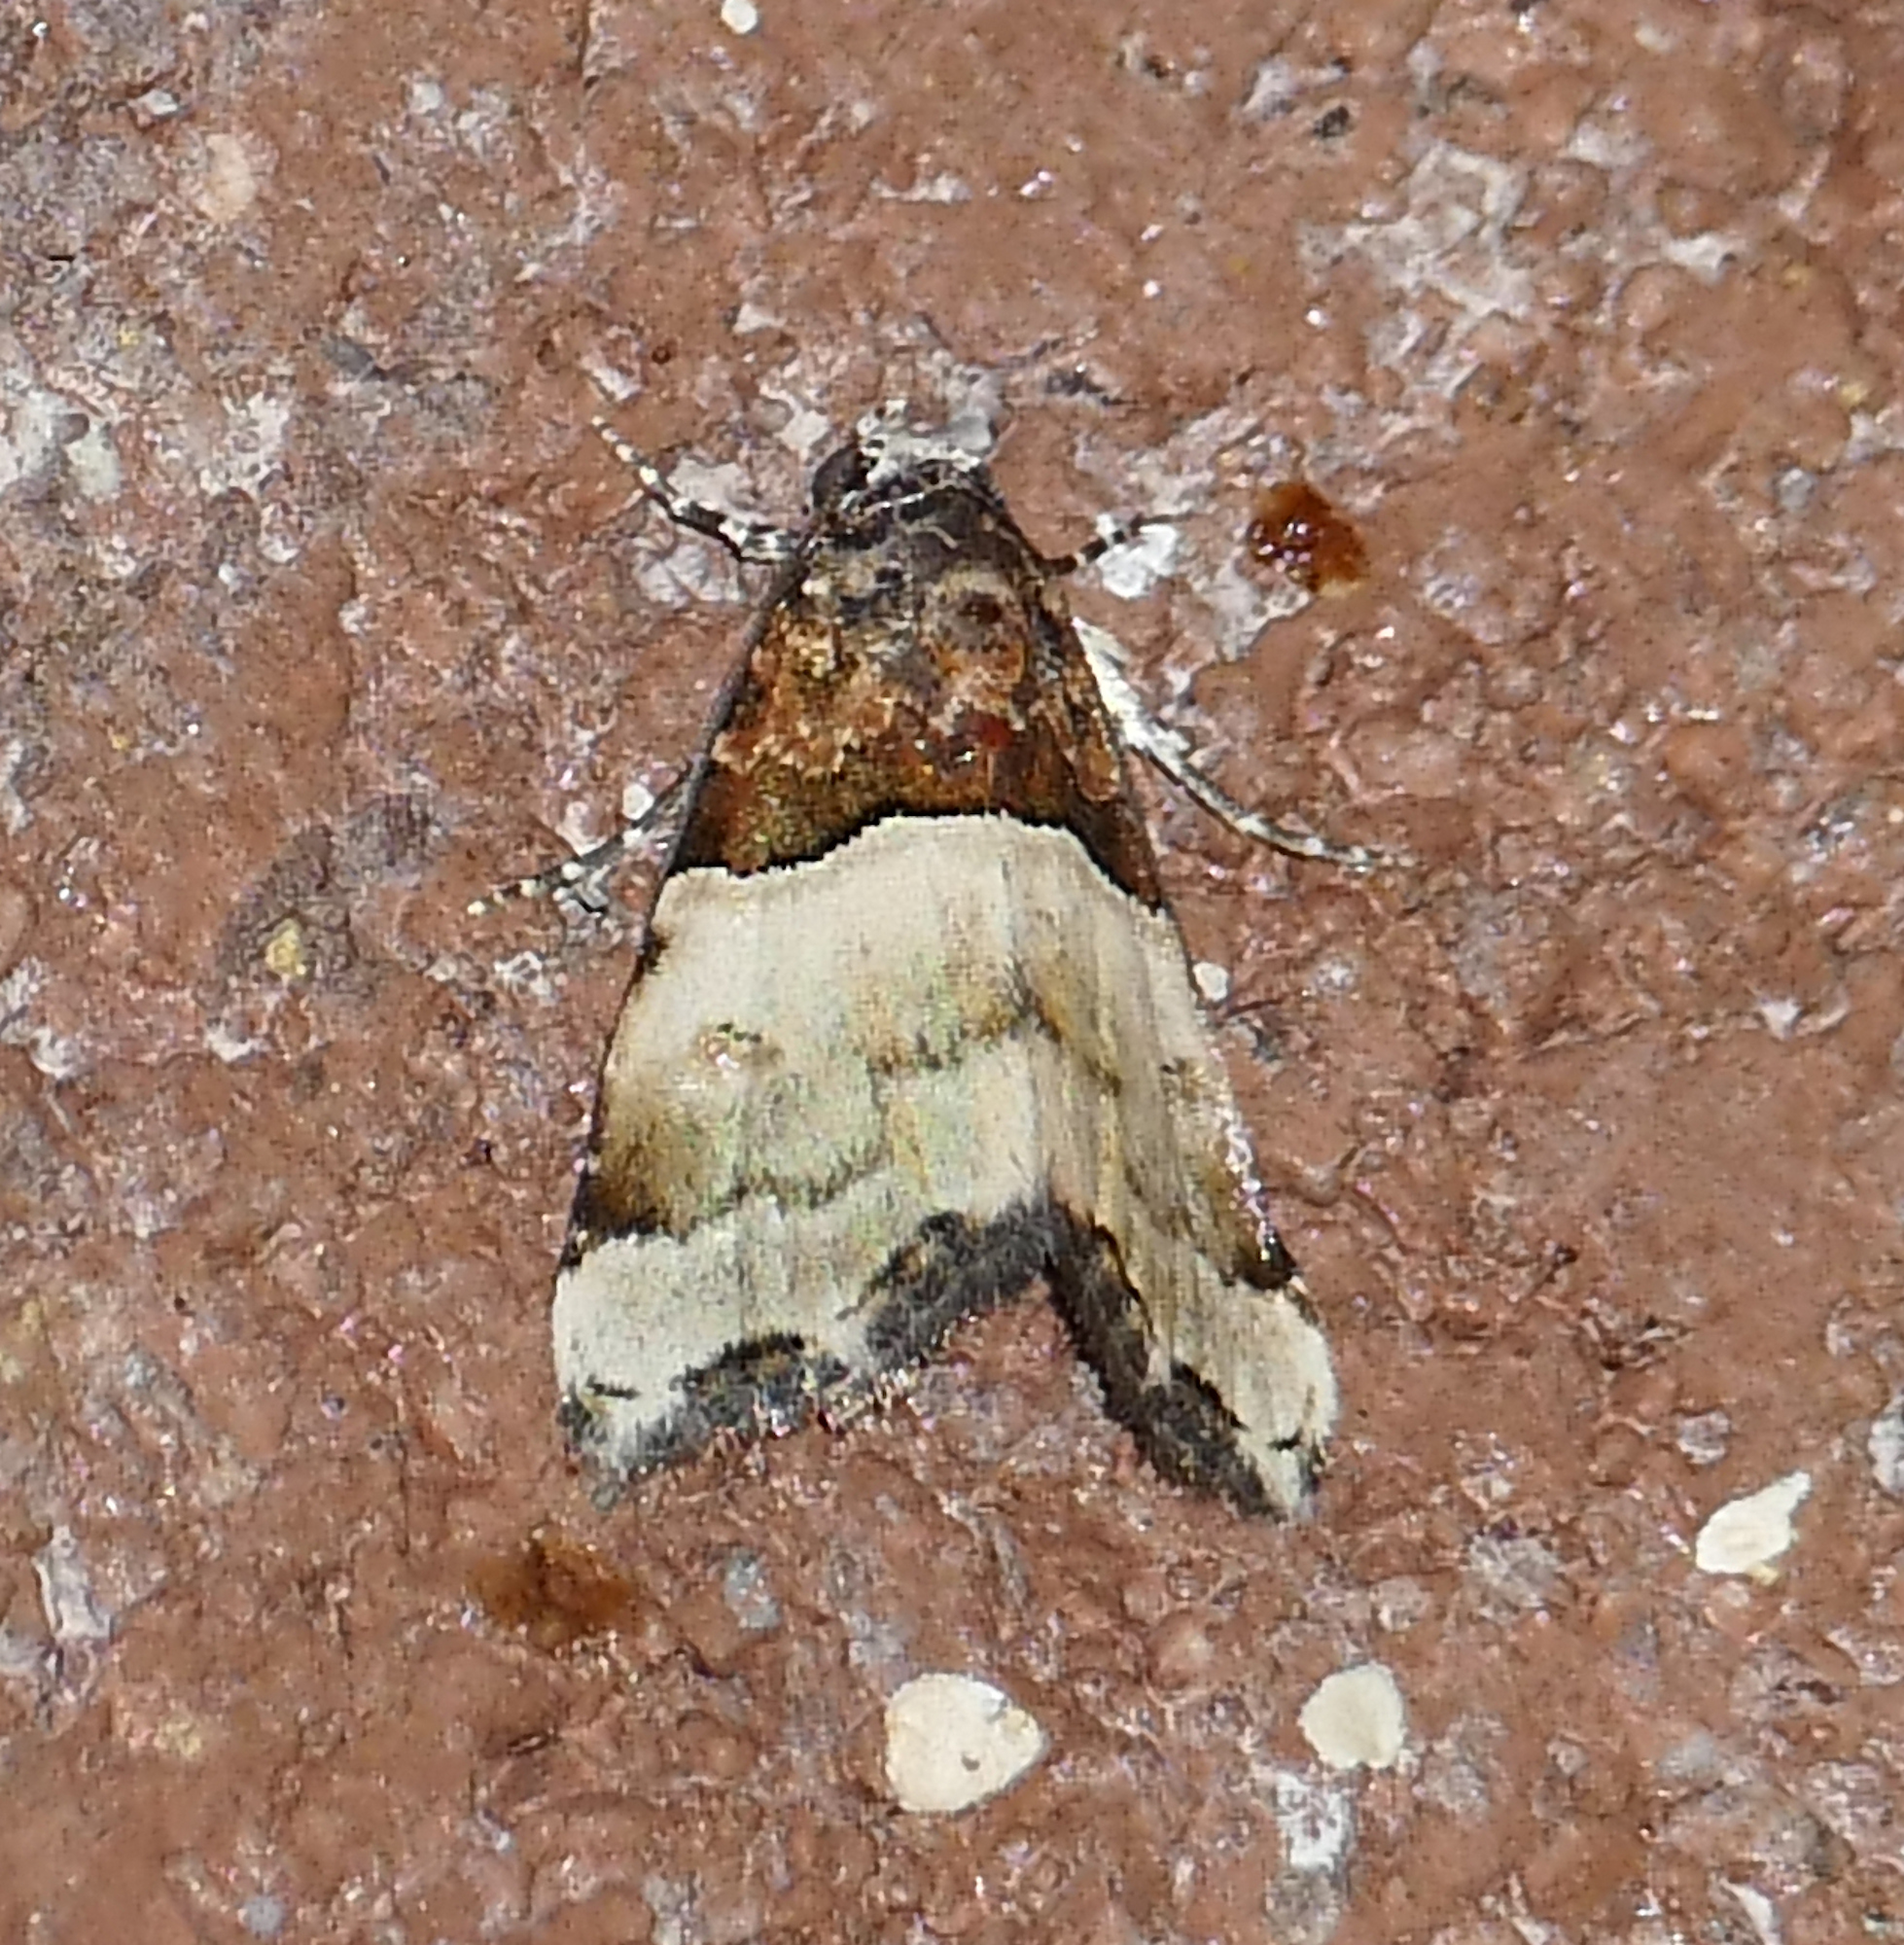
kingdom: Animalia
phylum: Arthropoda
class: Insecta
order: Lepidoptera
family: Noctuidae
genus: Cobubatha
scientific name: Cobubatha dividua
